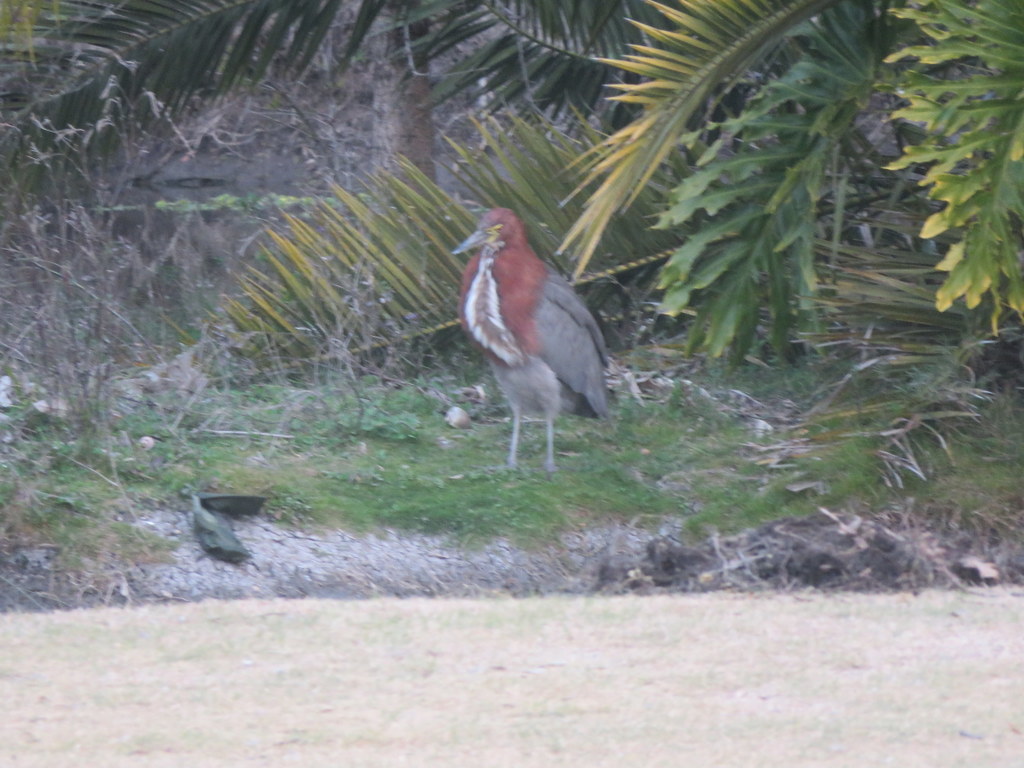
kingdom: Animalia
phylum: Chordata
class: Aves
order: Pelecaniformes
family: Ardeidae
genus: Tigrisoma
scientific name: Tigrisoma lineatum
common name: Rufescent tiger-heron
